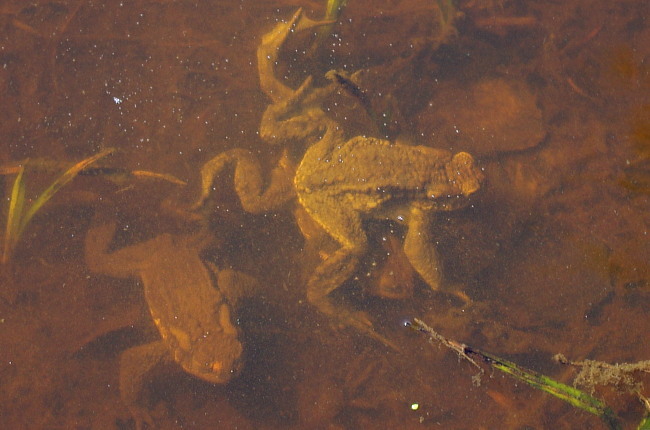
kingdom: Animalia
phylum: Chordata
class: Amphibia
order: Anura
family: Bufonidae
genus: Bufo
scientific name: Bufo bufo
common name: Common toad
